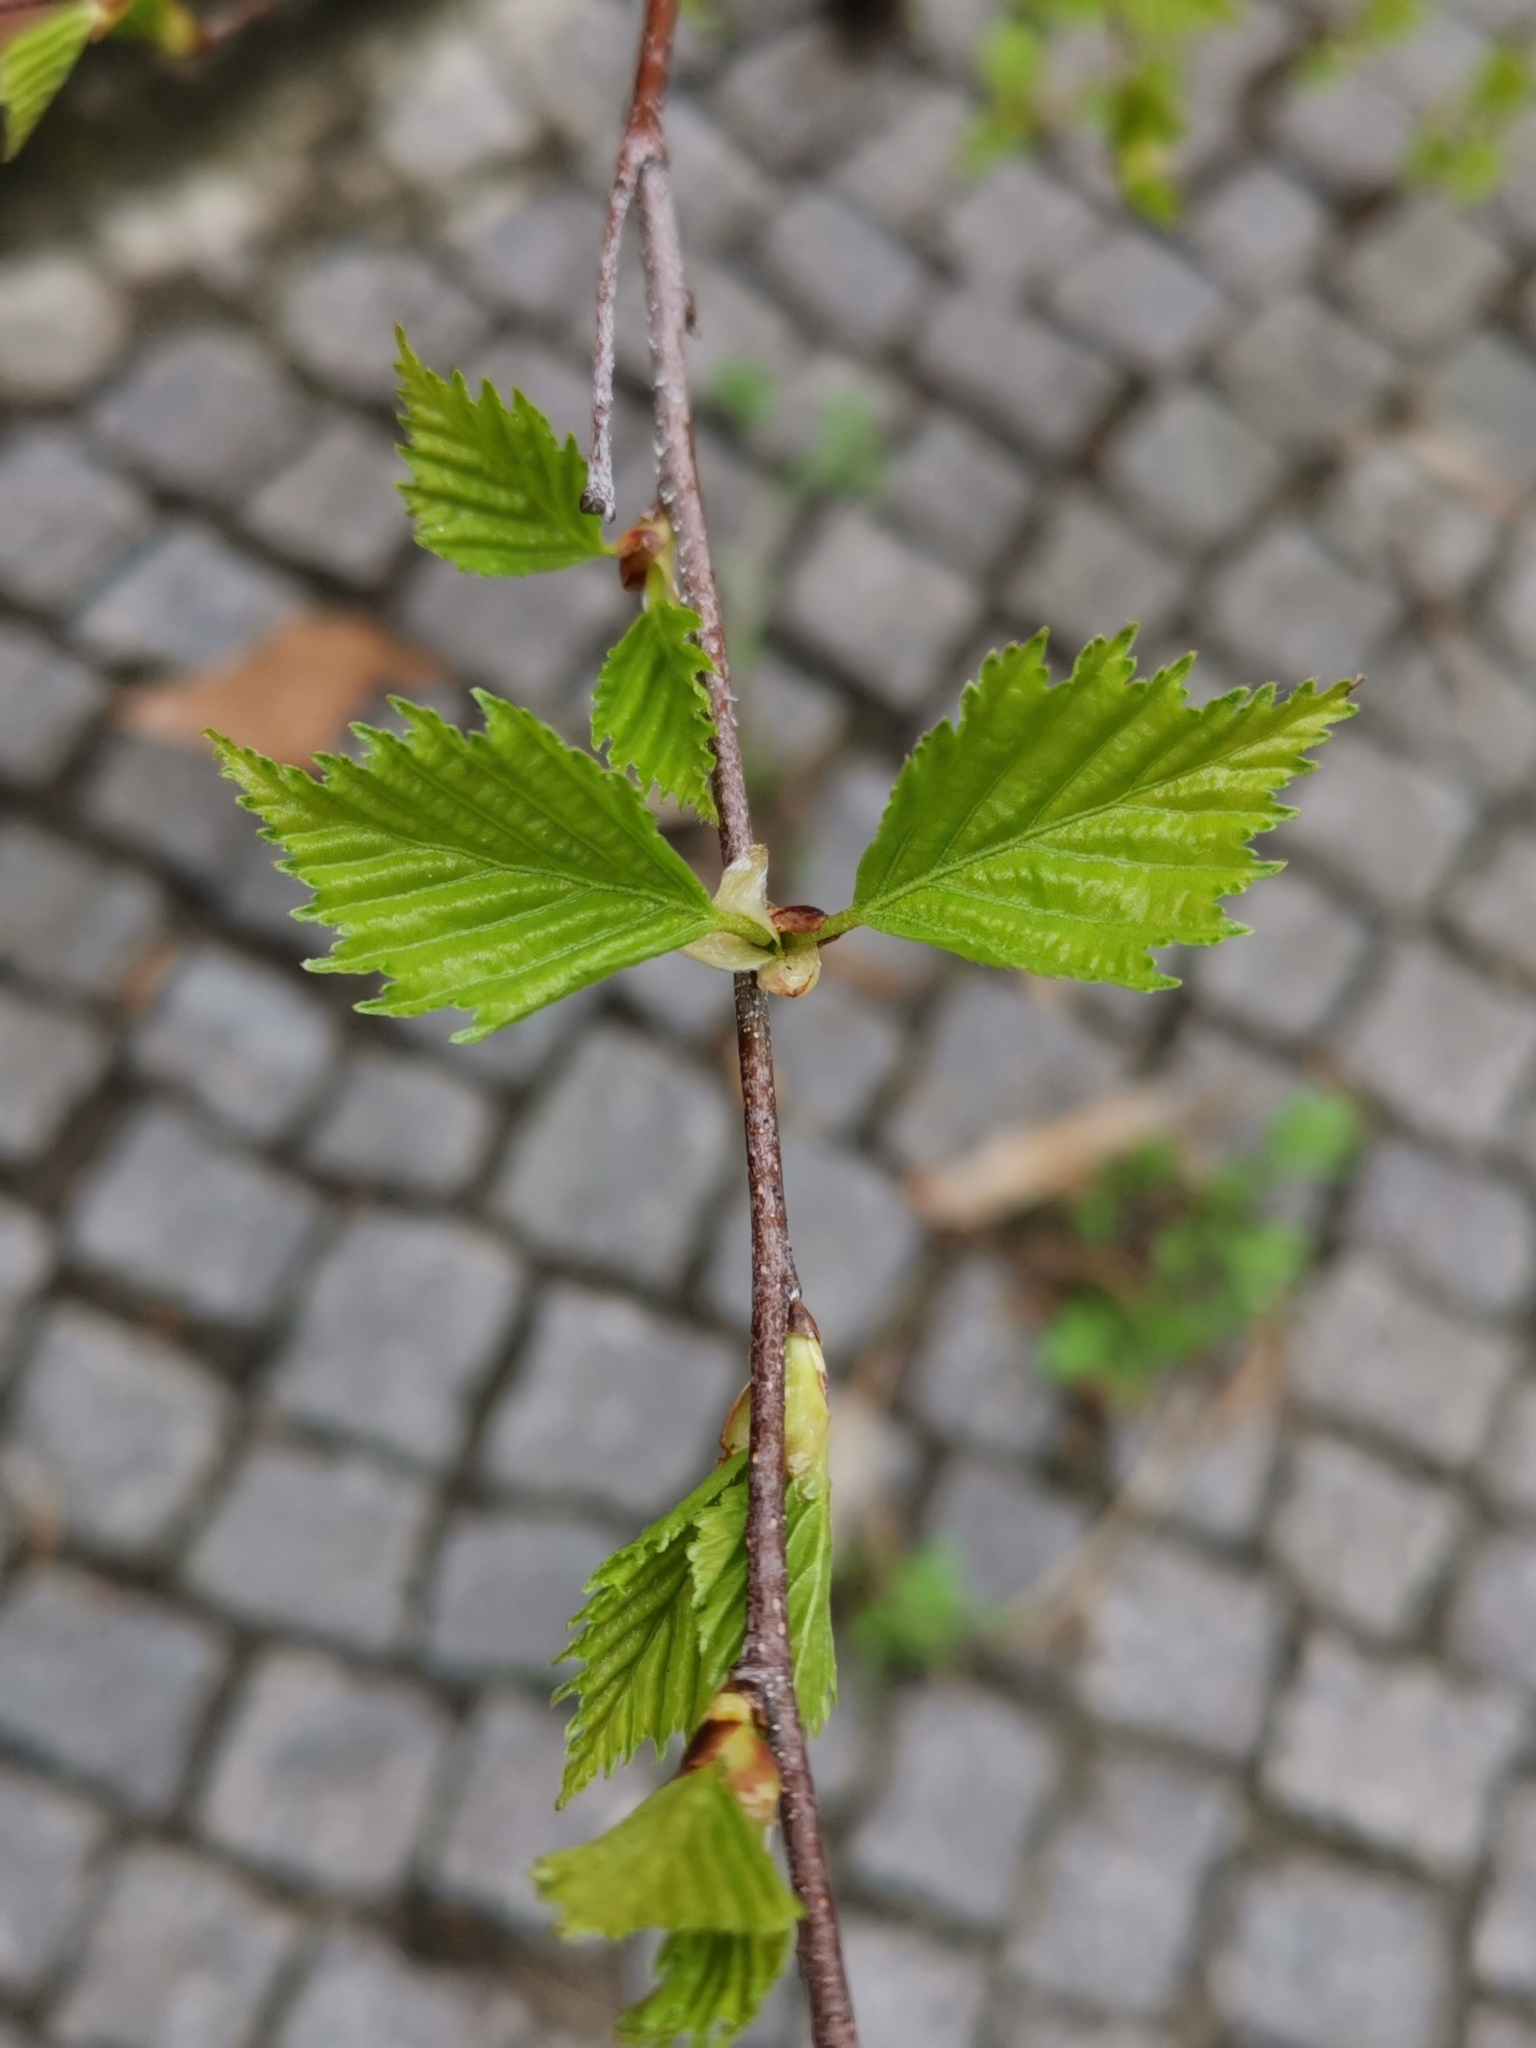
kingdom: Plantae
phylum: Tracheophyta
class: Magnoliopsida
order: Fagales
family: Betulaceae
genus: Betula
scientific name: Betula pendula
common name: Silver birch
